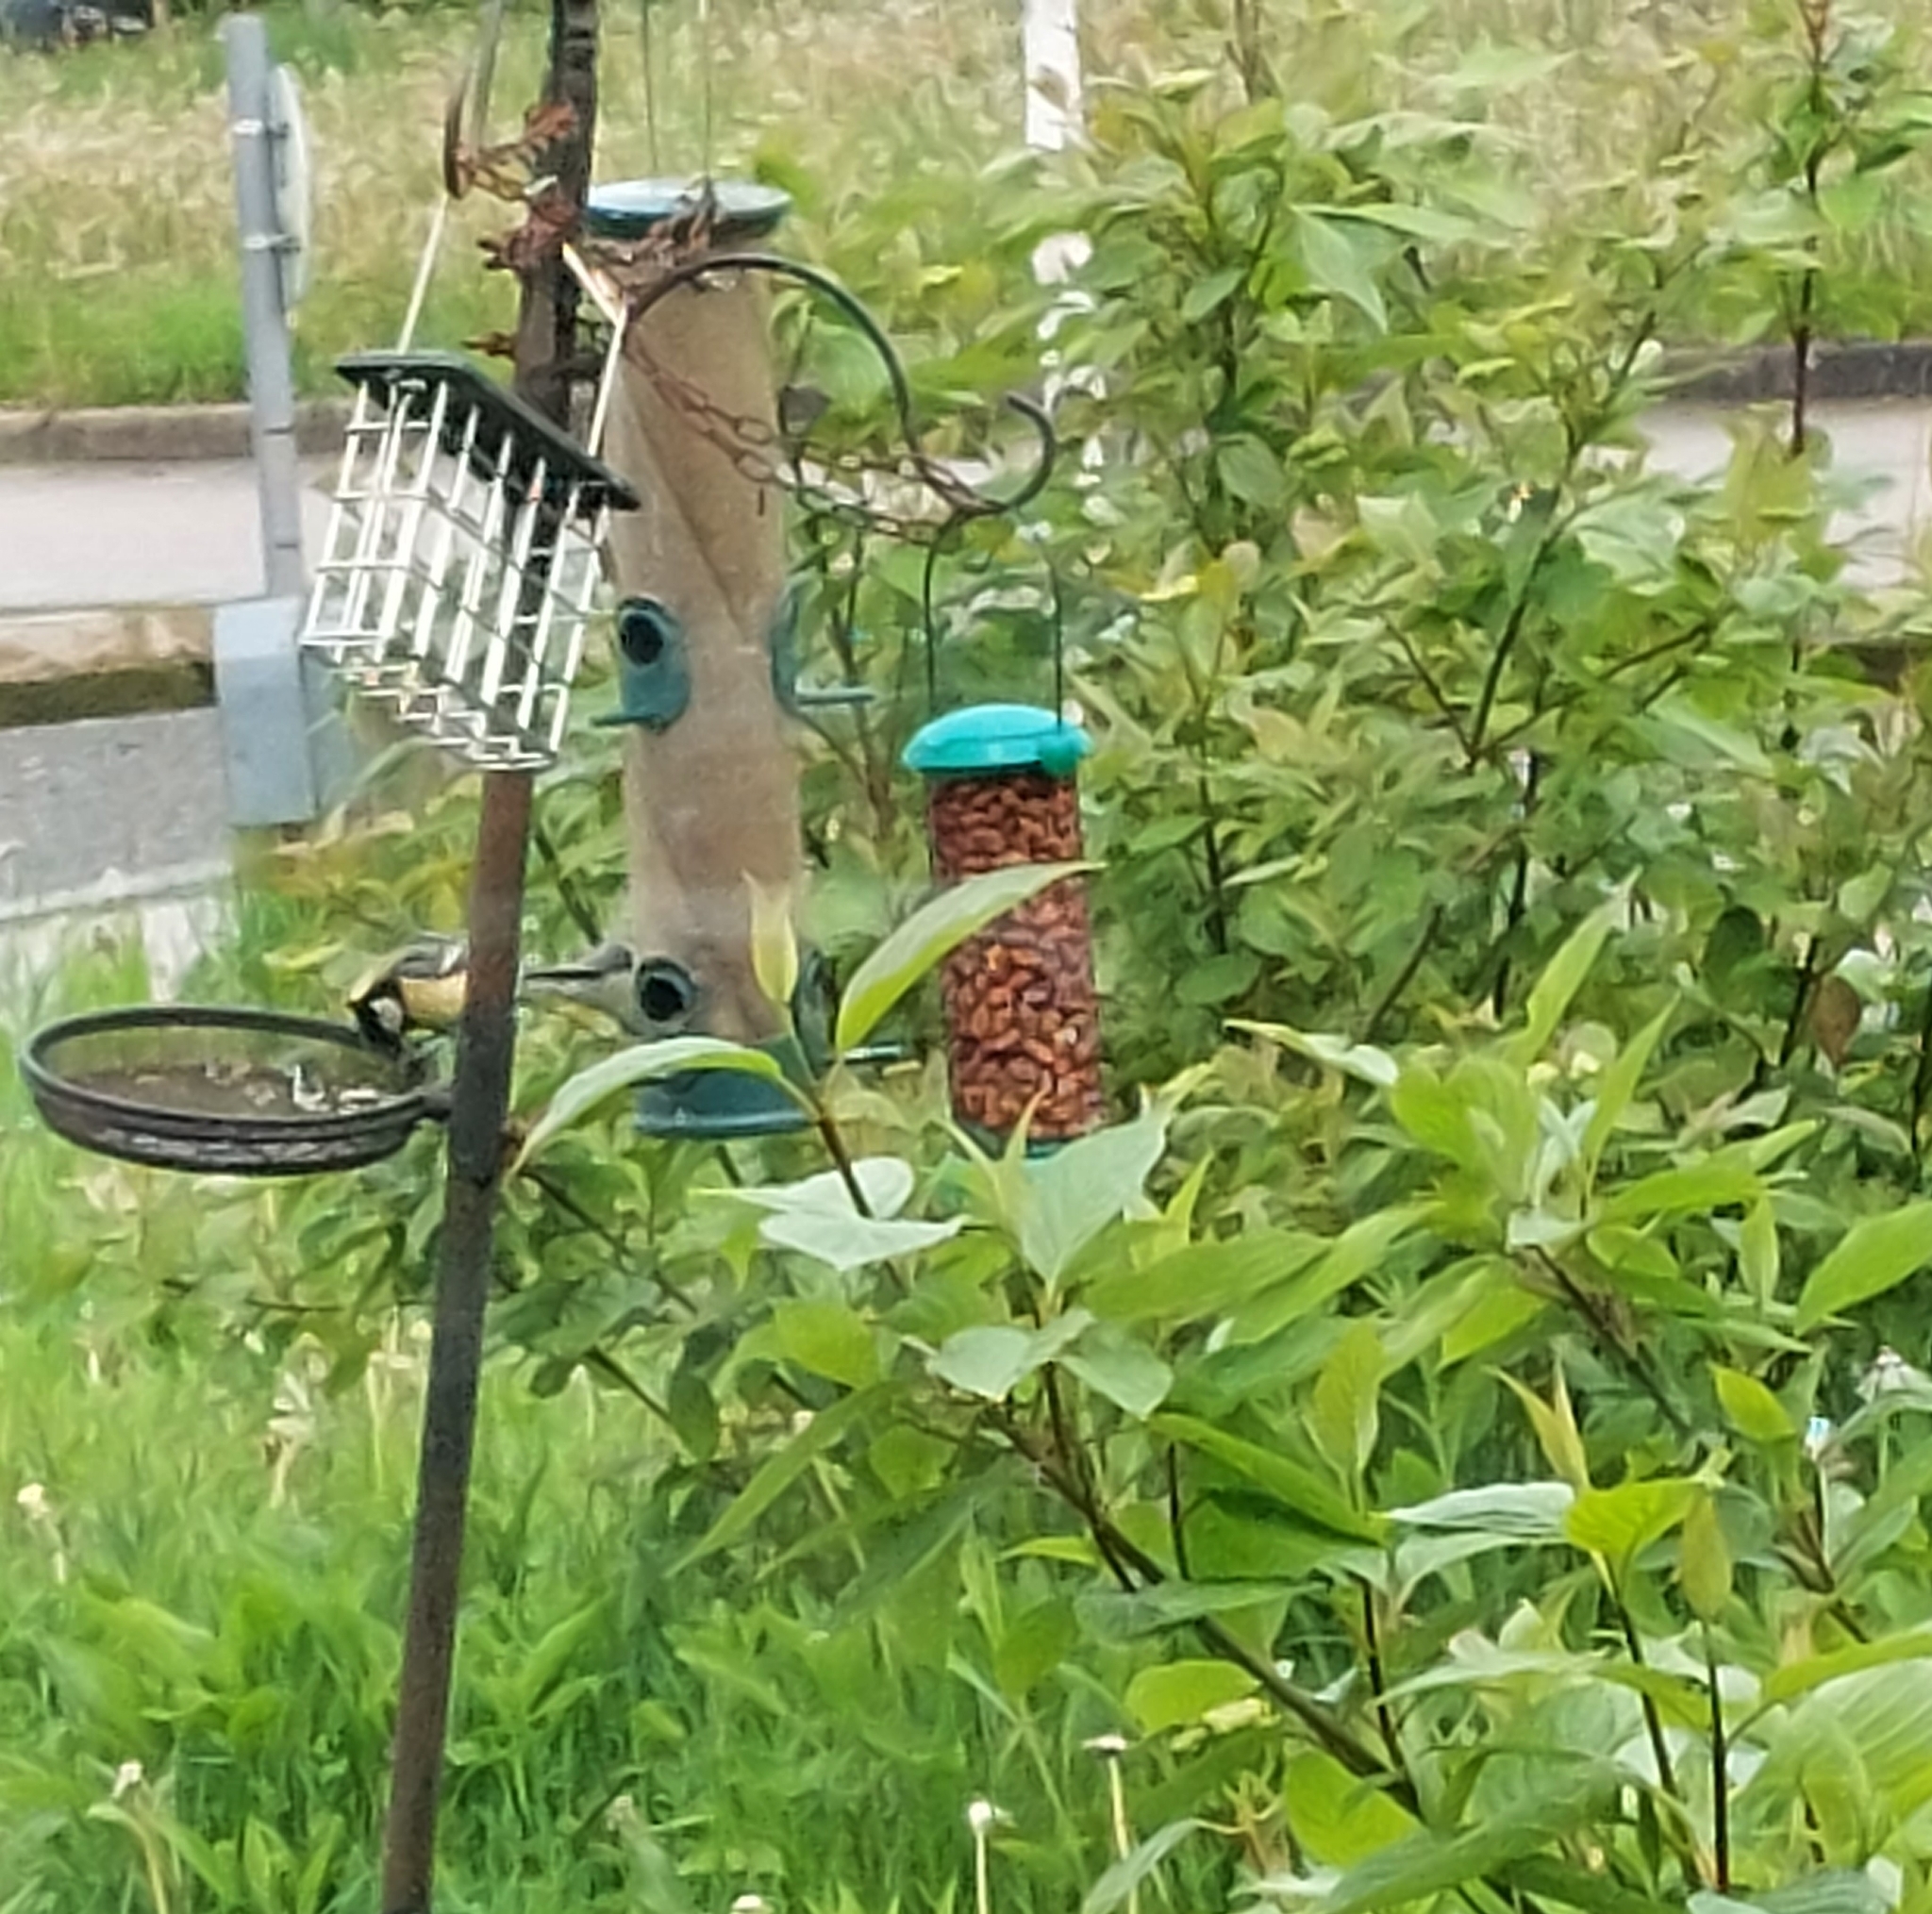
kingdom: Animalia
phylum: Chordata
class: Aves
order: Passeriformes
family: Paridae
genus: Parus
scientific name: Parus major
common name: Great tit
